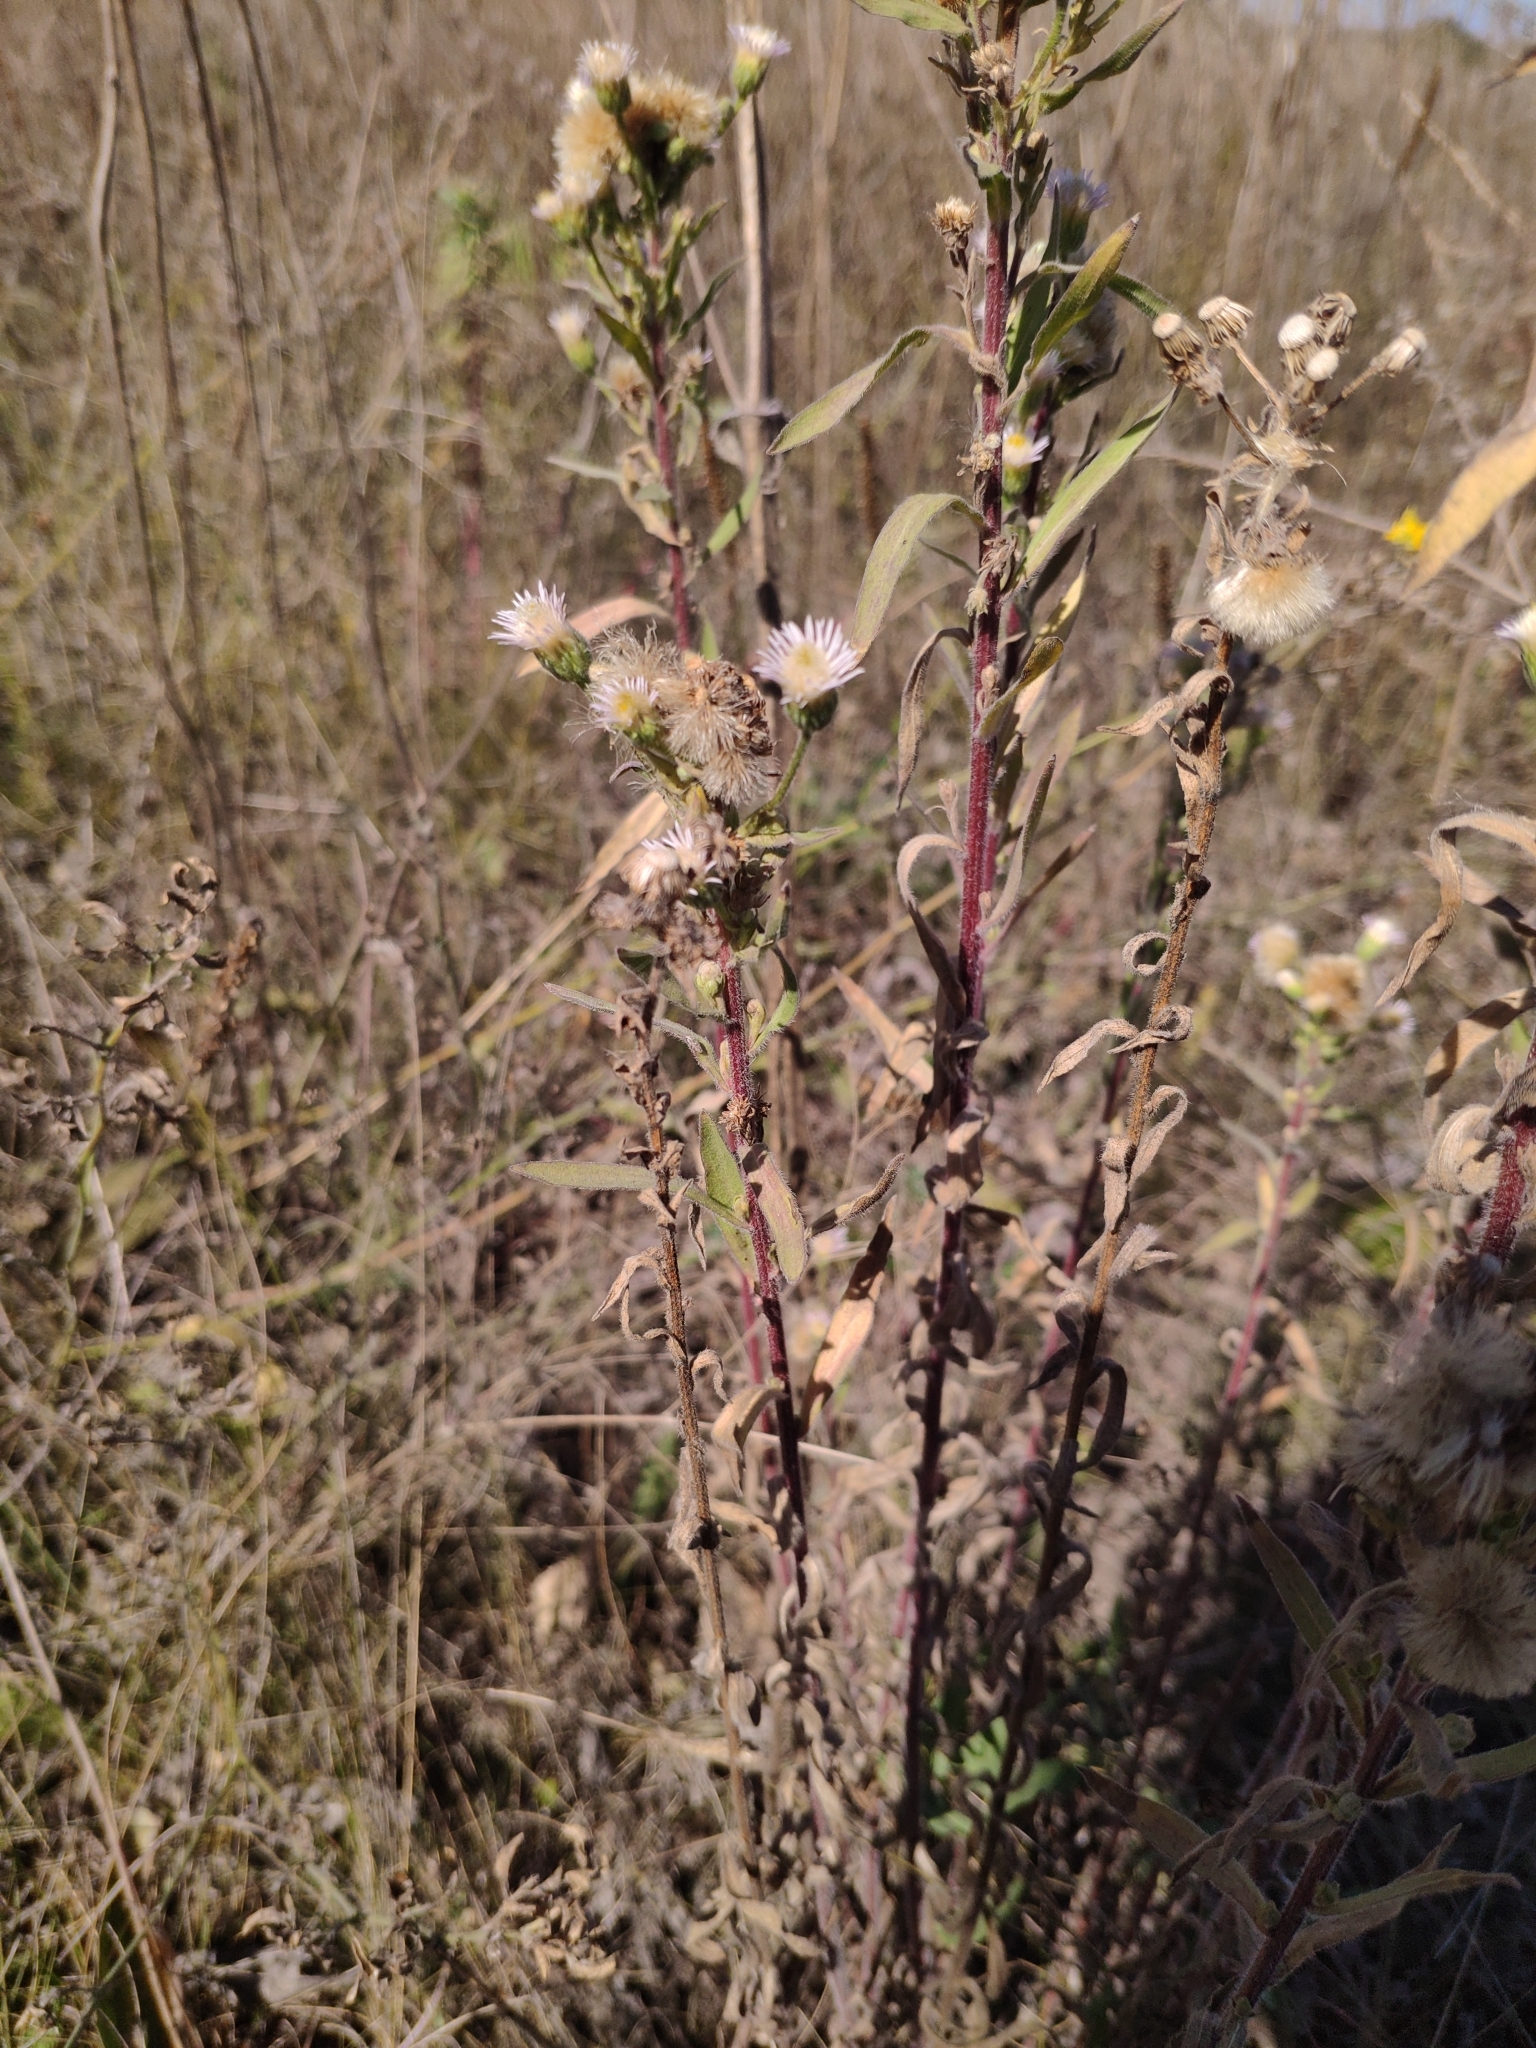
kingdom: Plantae
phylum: Tracheophyta
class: Magnoliopsida
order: Asterales
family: Asteraceae
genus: Erigeron
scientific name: Erigeron podolicus
